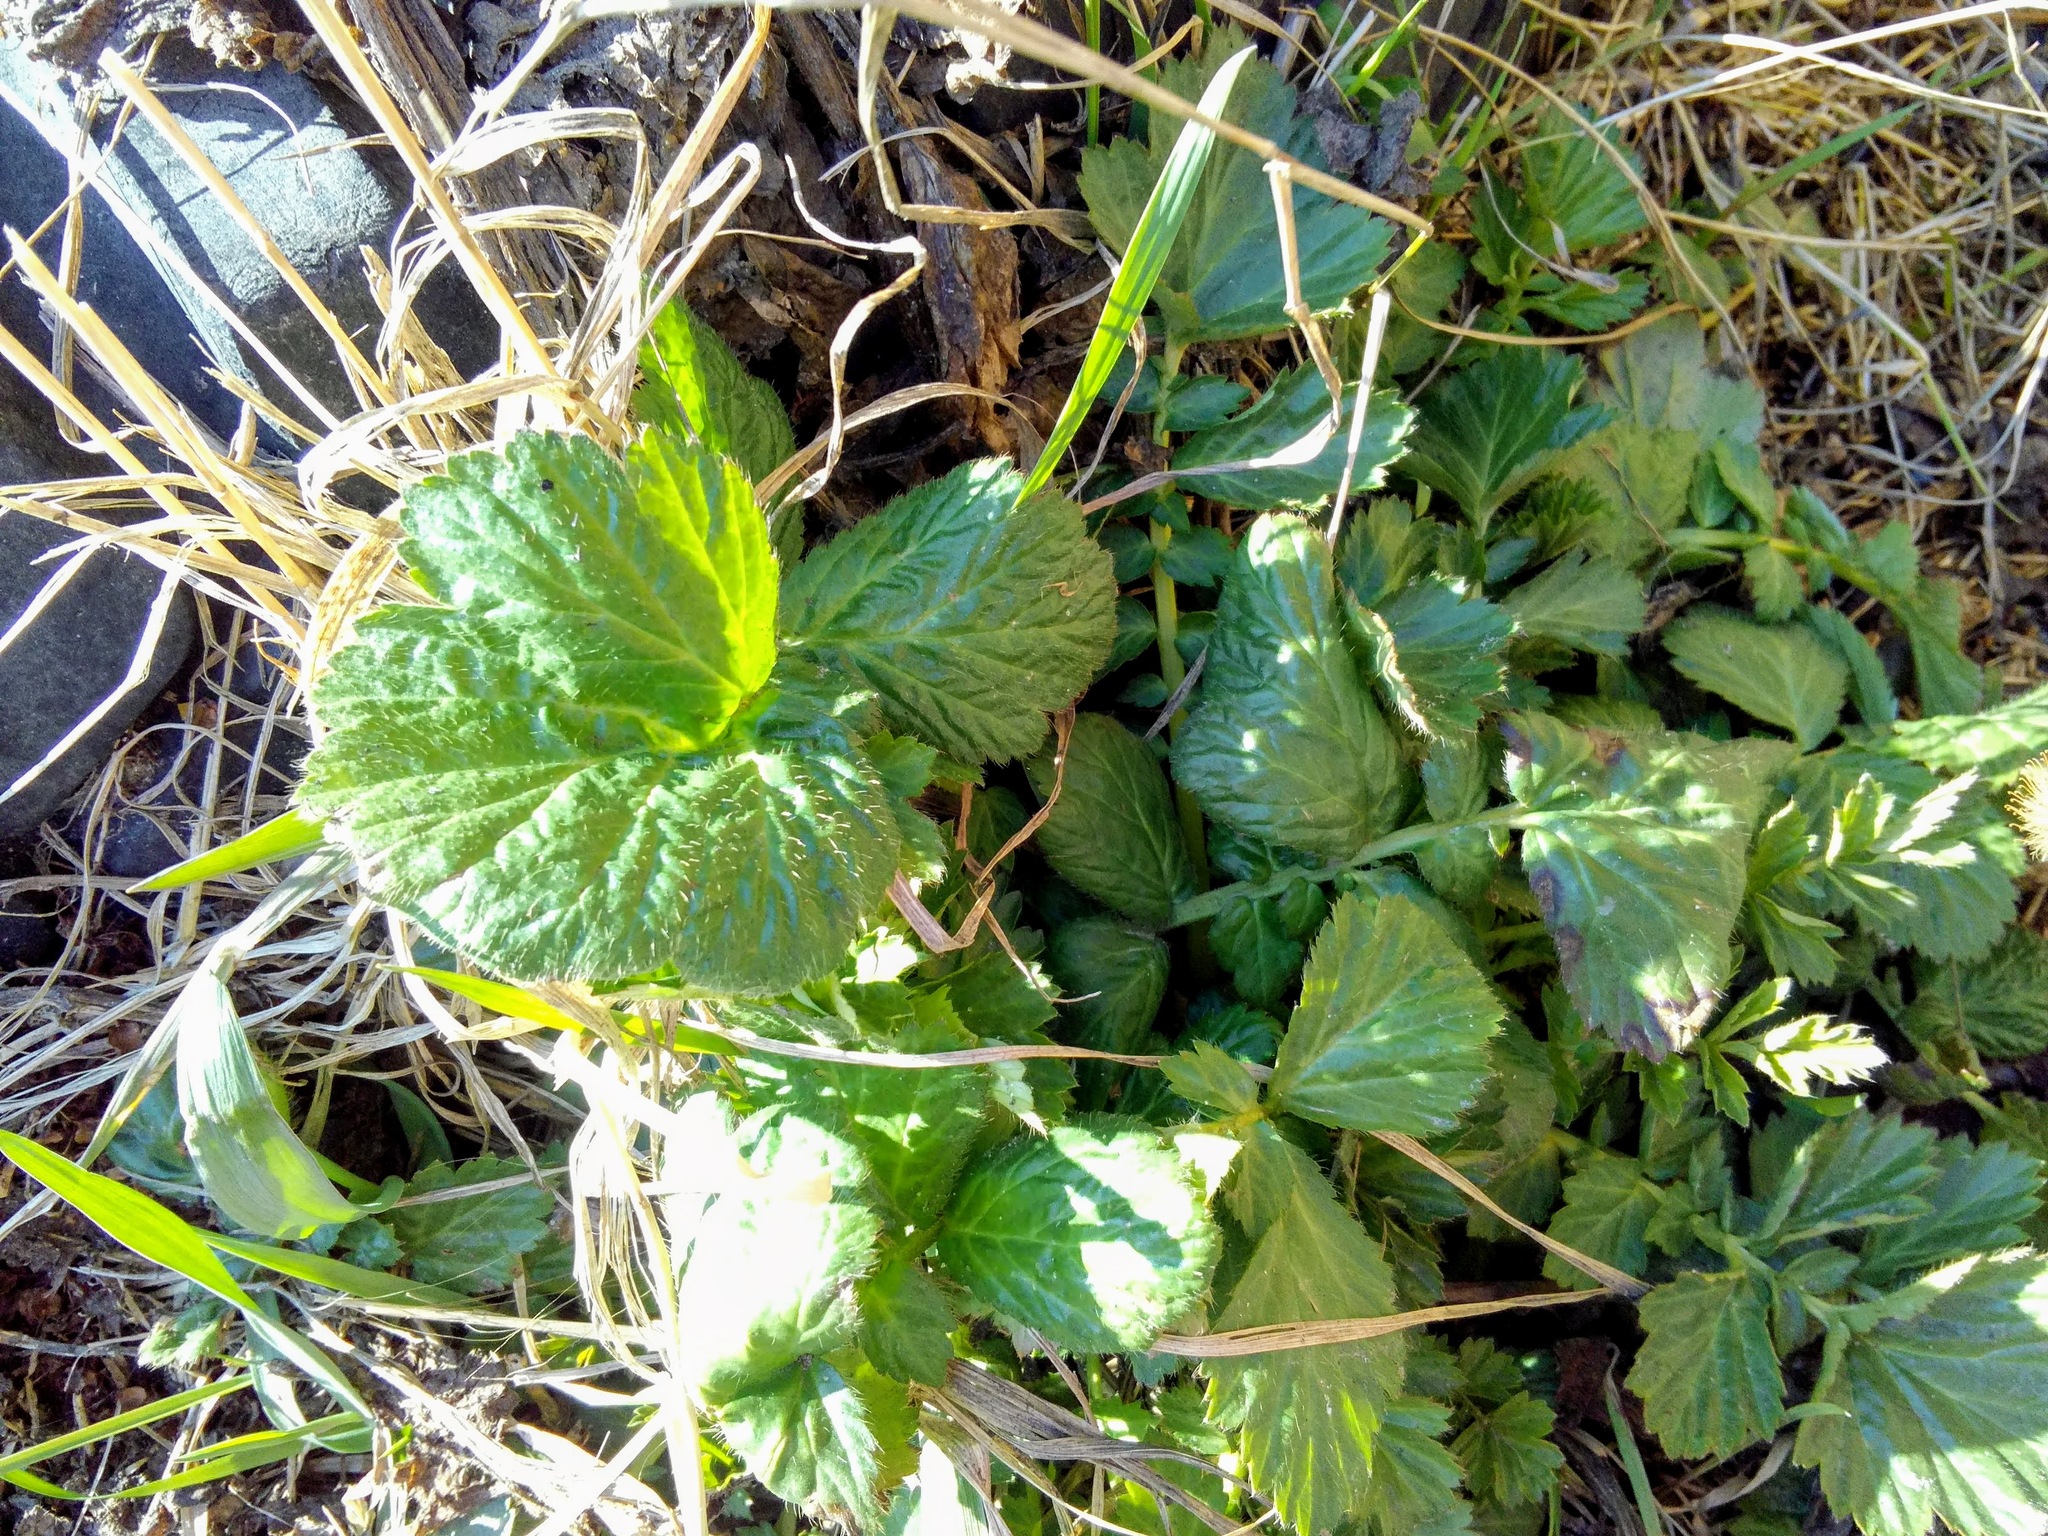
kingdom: Plantae
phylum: Tracheophyta
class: Magnoliopsida
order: Rosales
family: Rosaceae
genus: Geum
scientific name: Geum aleppicum
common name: Yellow avens
